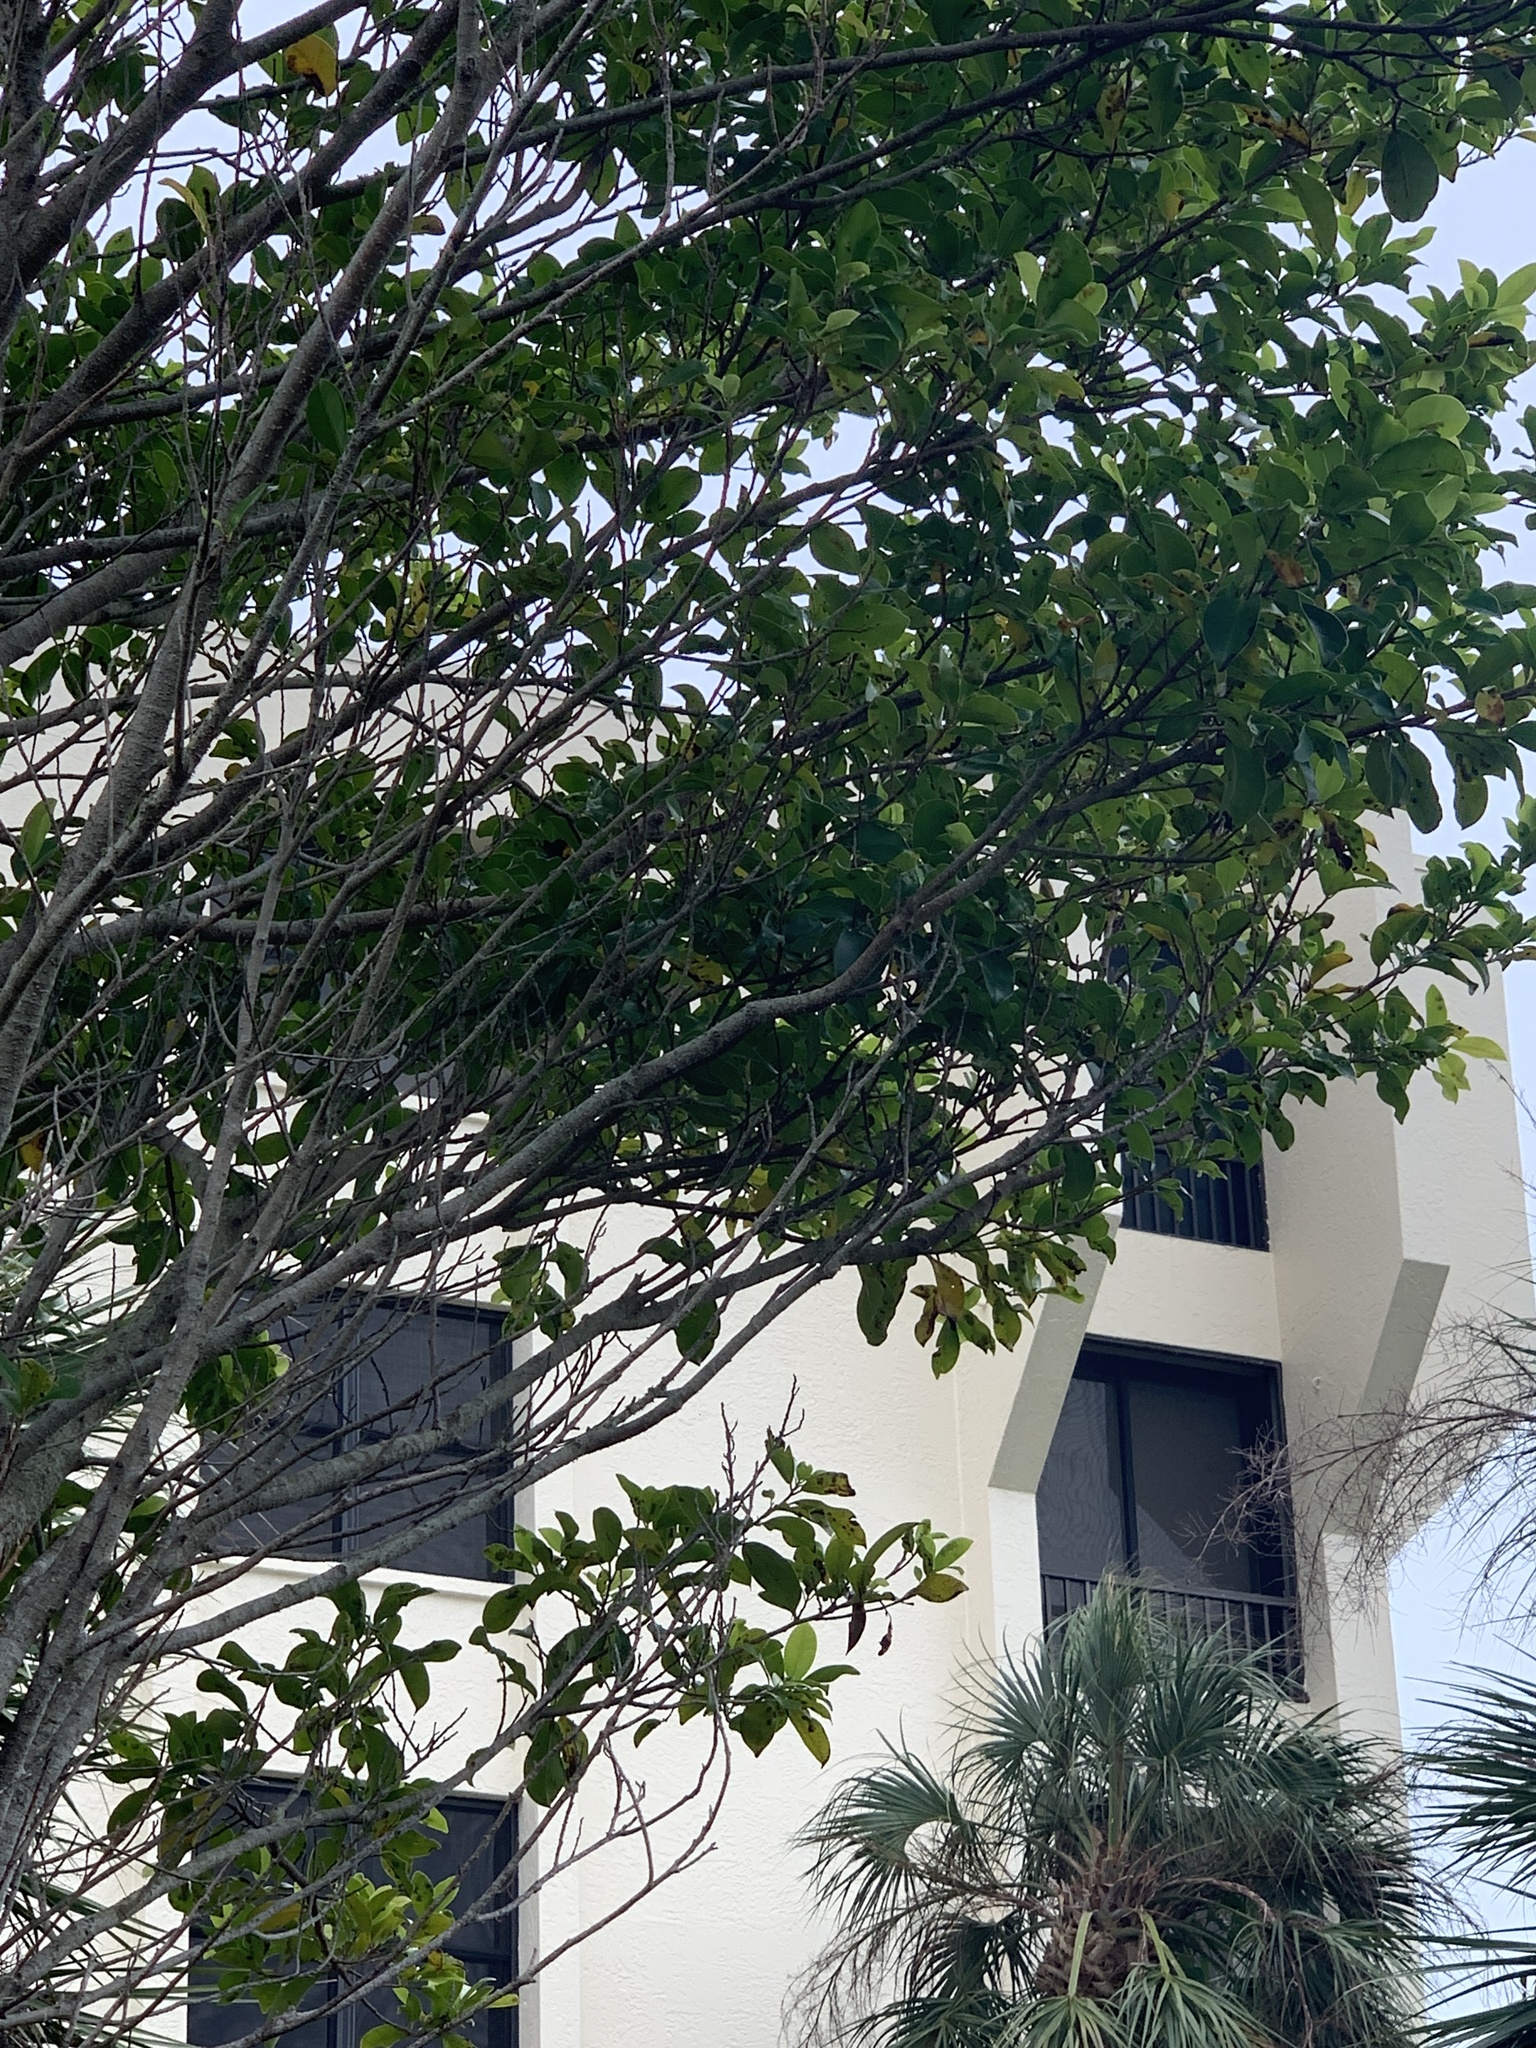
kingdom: Plantae
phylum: Tracheophyta
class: Magnoliopsida
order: Rosales
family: Moraceae
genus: Ficus
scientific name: Ficus microcarpa
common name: Chinese banyan
